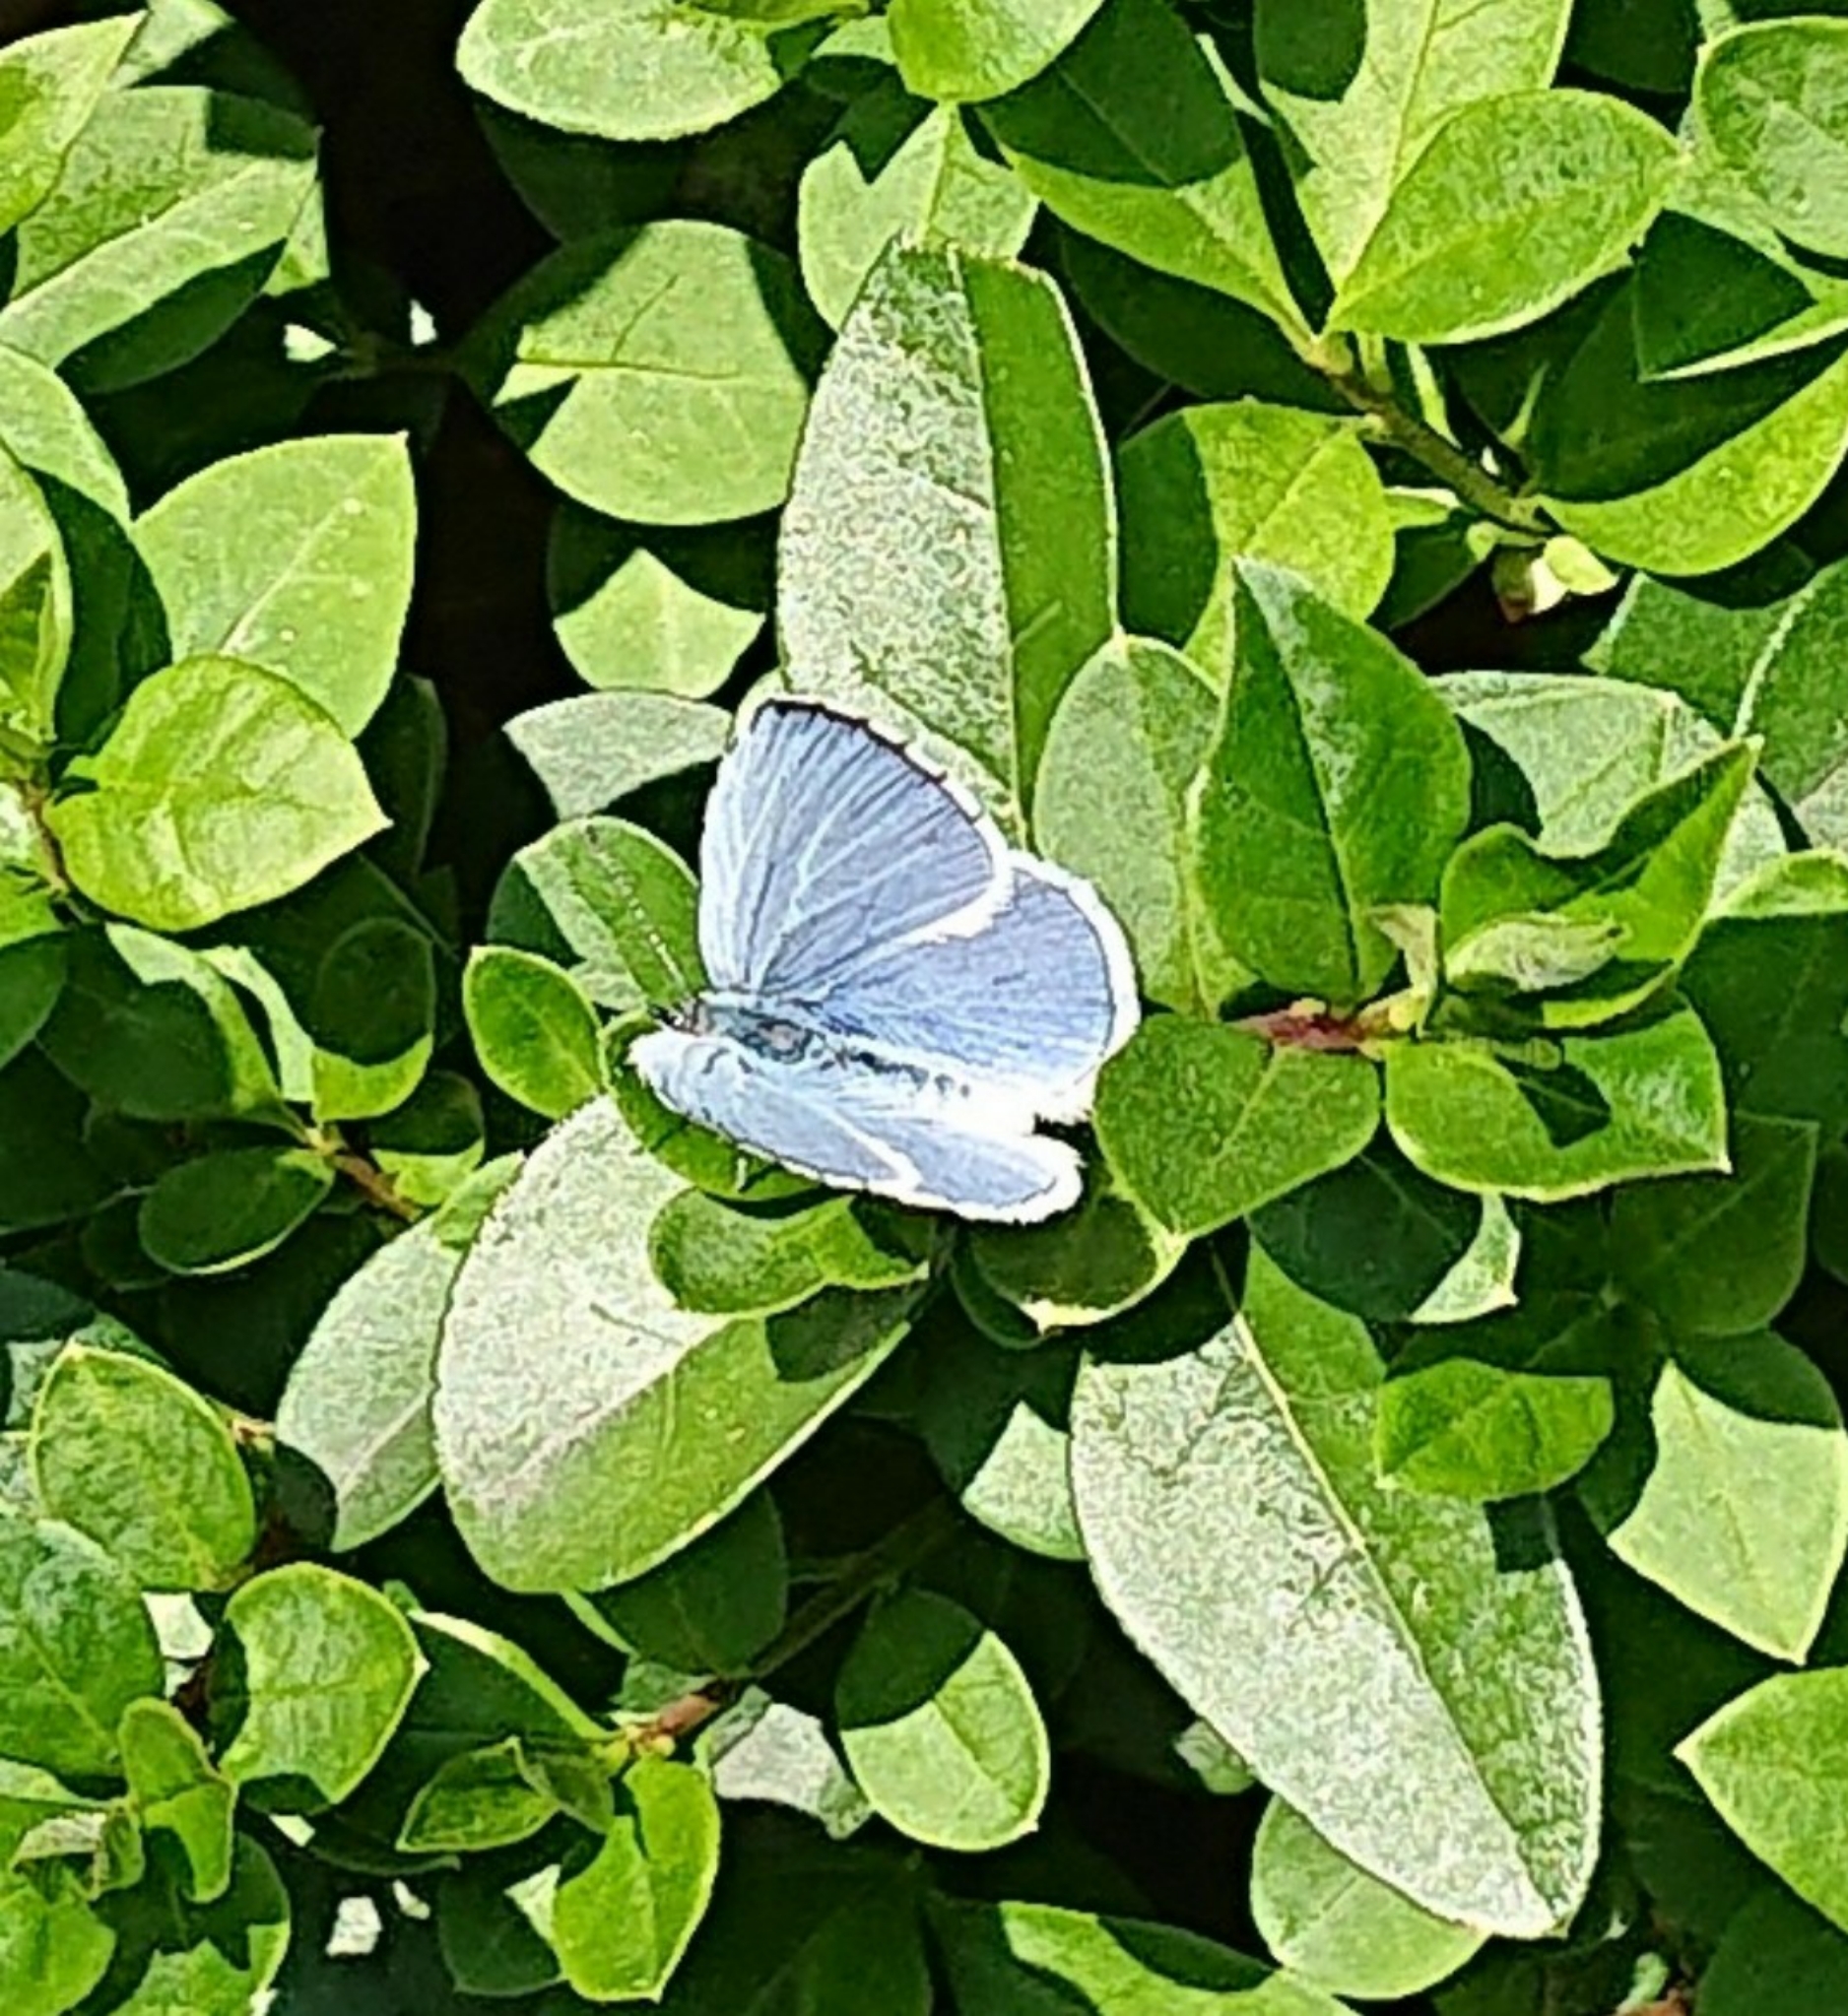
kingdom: Animalia
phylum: Arthropoda
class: Insecta
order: Lepidoptera
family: Lycaenidae
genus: Celastrina
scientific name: Celastrina argiolus
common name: Holly blue
